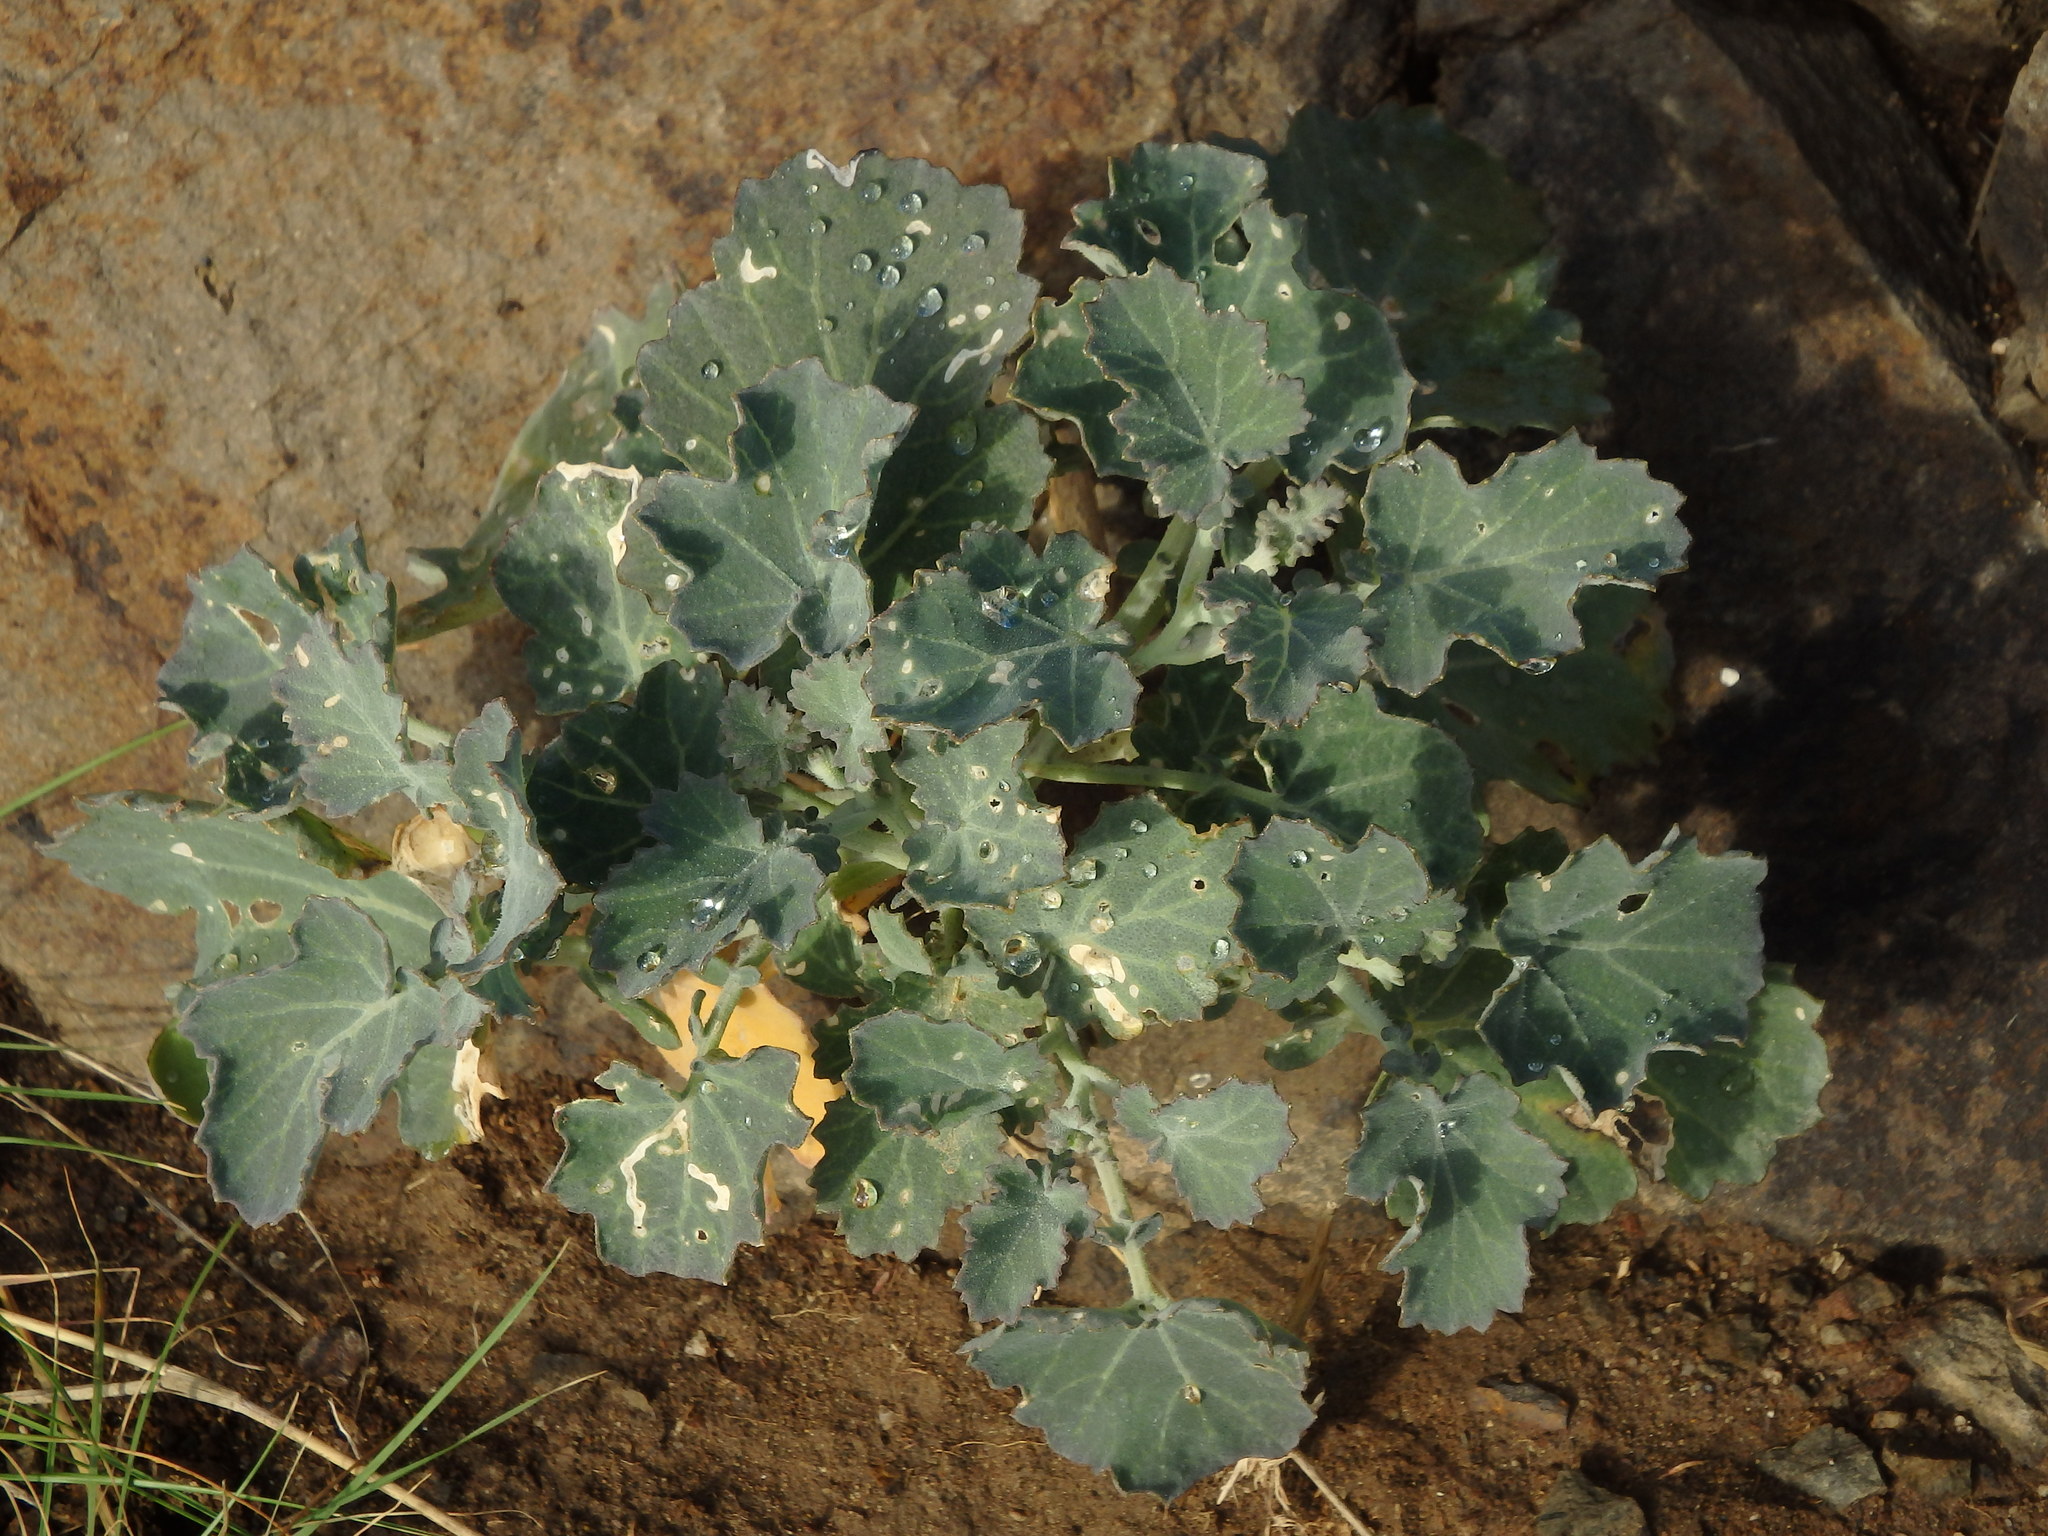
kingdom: Plantae
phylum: Tracheophyta
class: Magnoliopsida
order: Brassicales
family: Brassicaceae
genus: Crambe
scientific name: Crambe fruticosa
